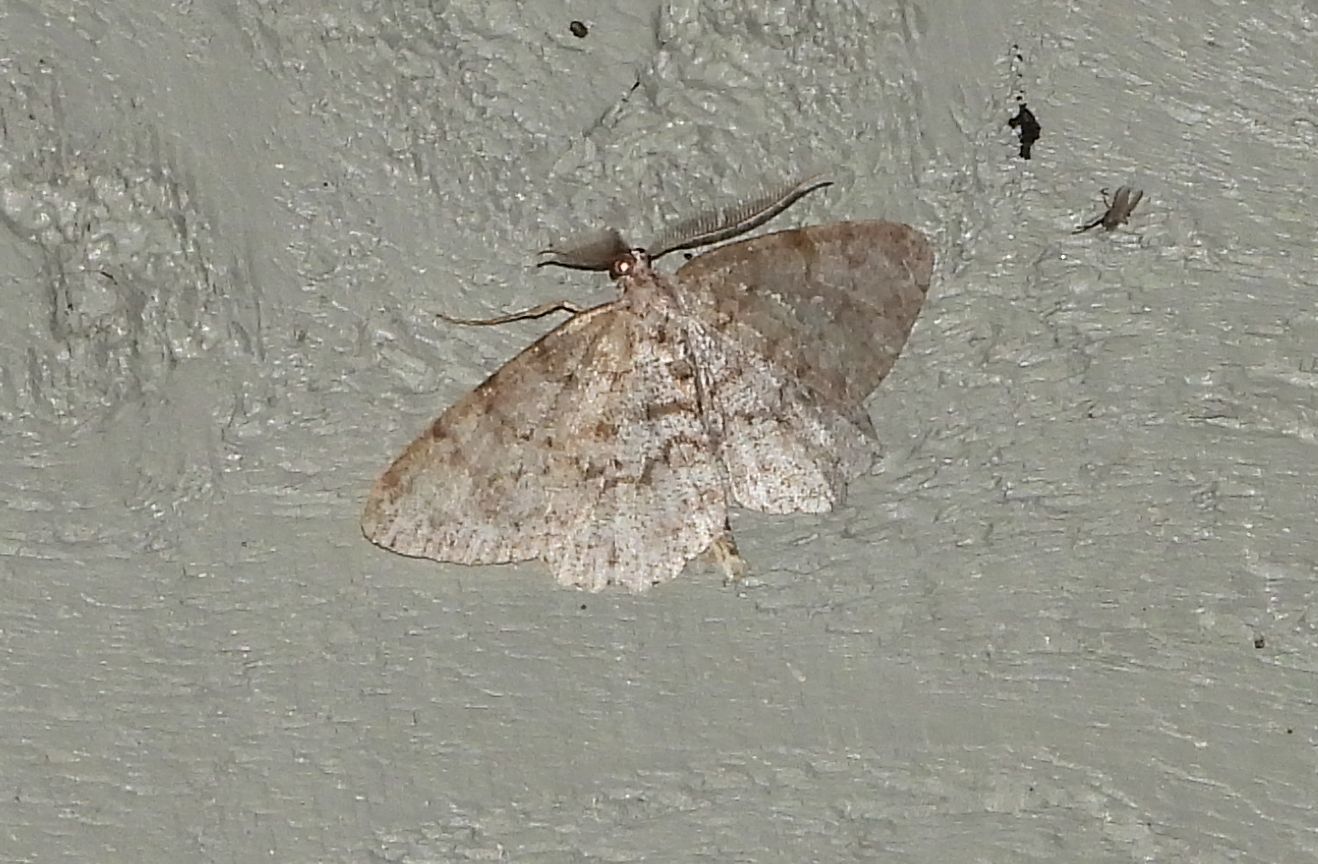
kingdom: Animalia
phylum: Arthropoda
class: Insecta
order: Lepidoptera
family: Geometridae
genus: Protoboarmia
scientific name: Protoboarmia porcelaria
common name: Porcelain gray
